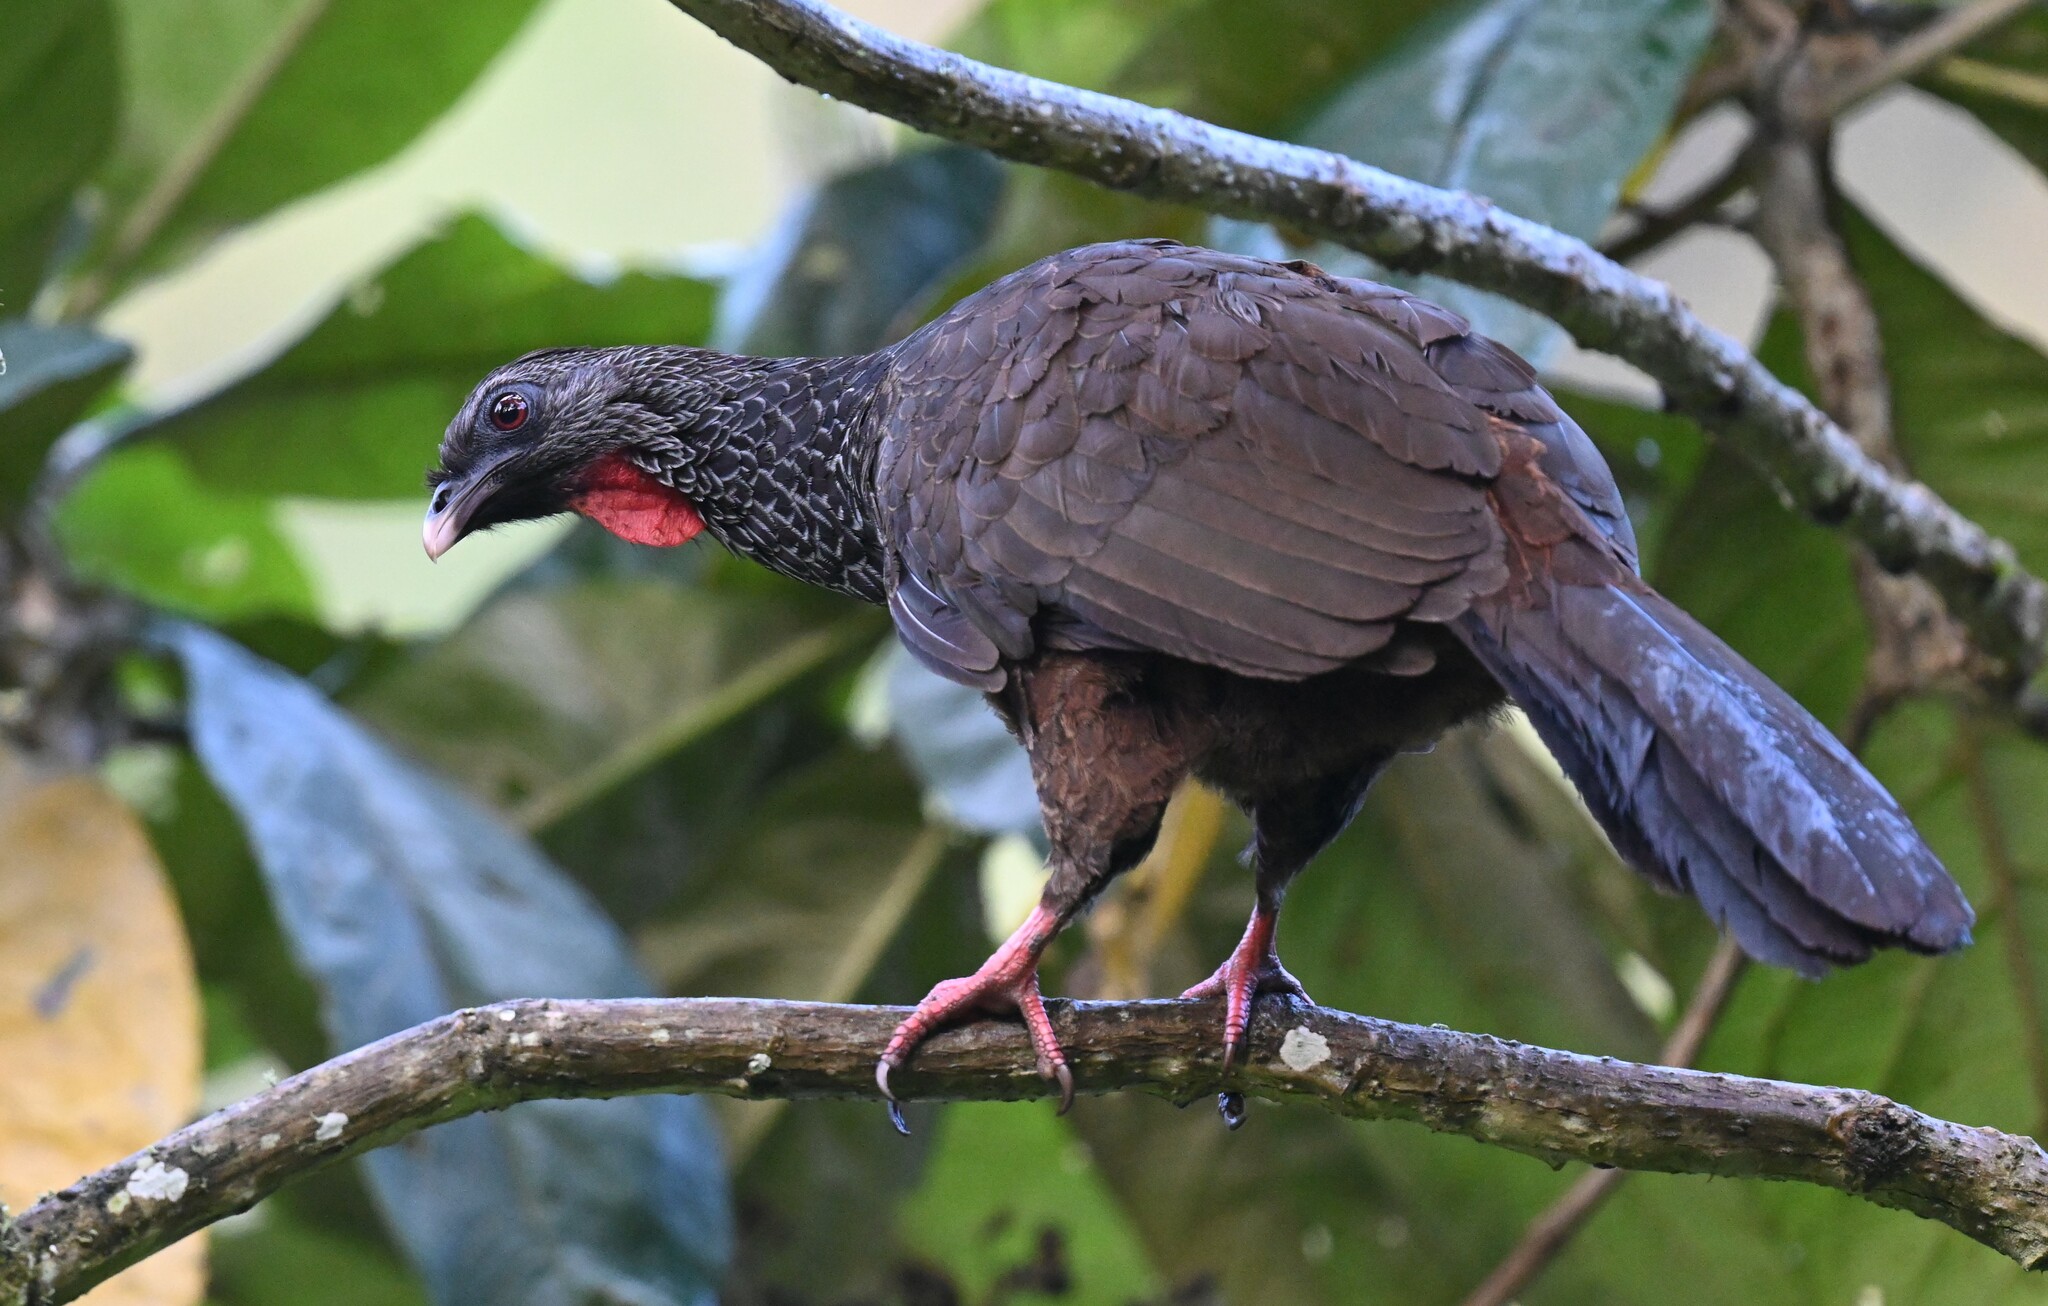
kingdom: Animalia
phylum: Chordata
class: Aves
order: Galliformes
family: Cracidae
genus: Penelope
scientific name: Penelope montagnii
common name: Andean guan
